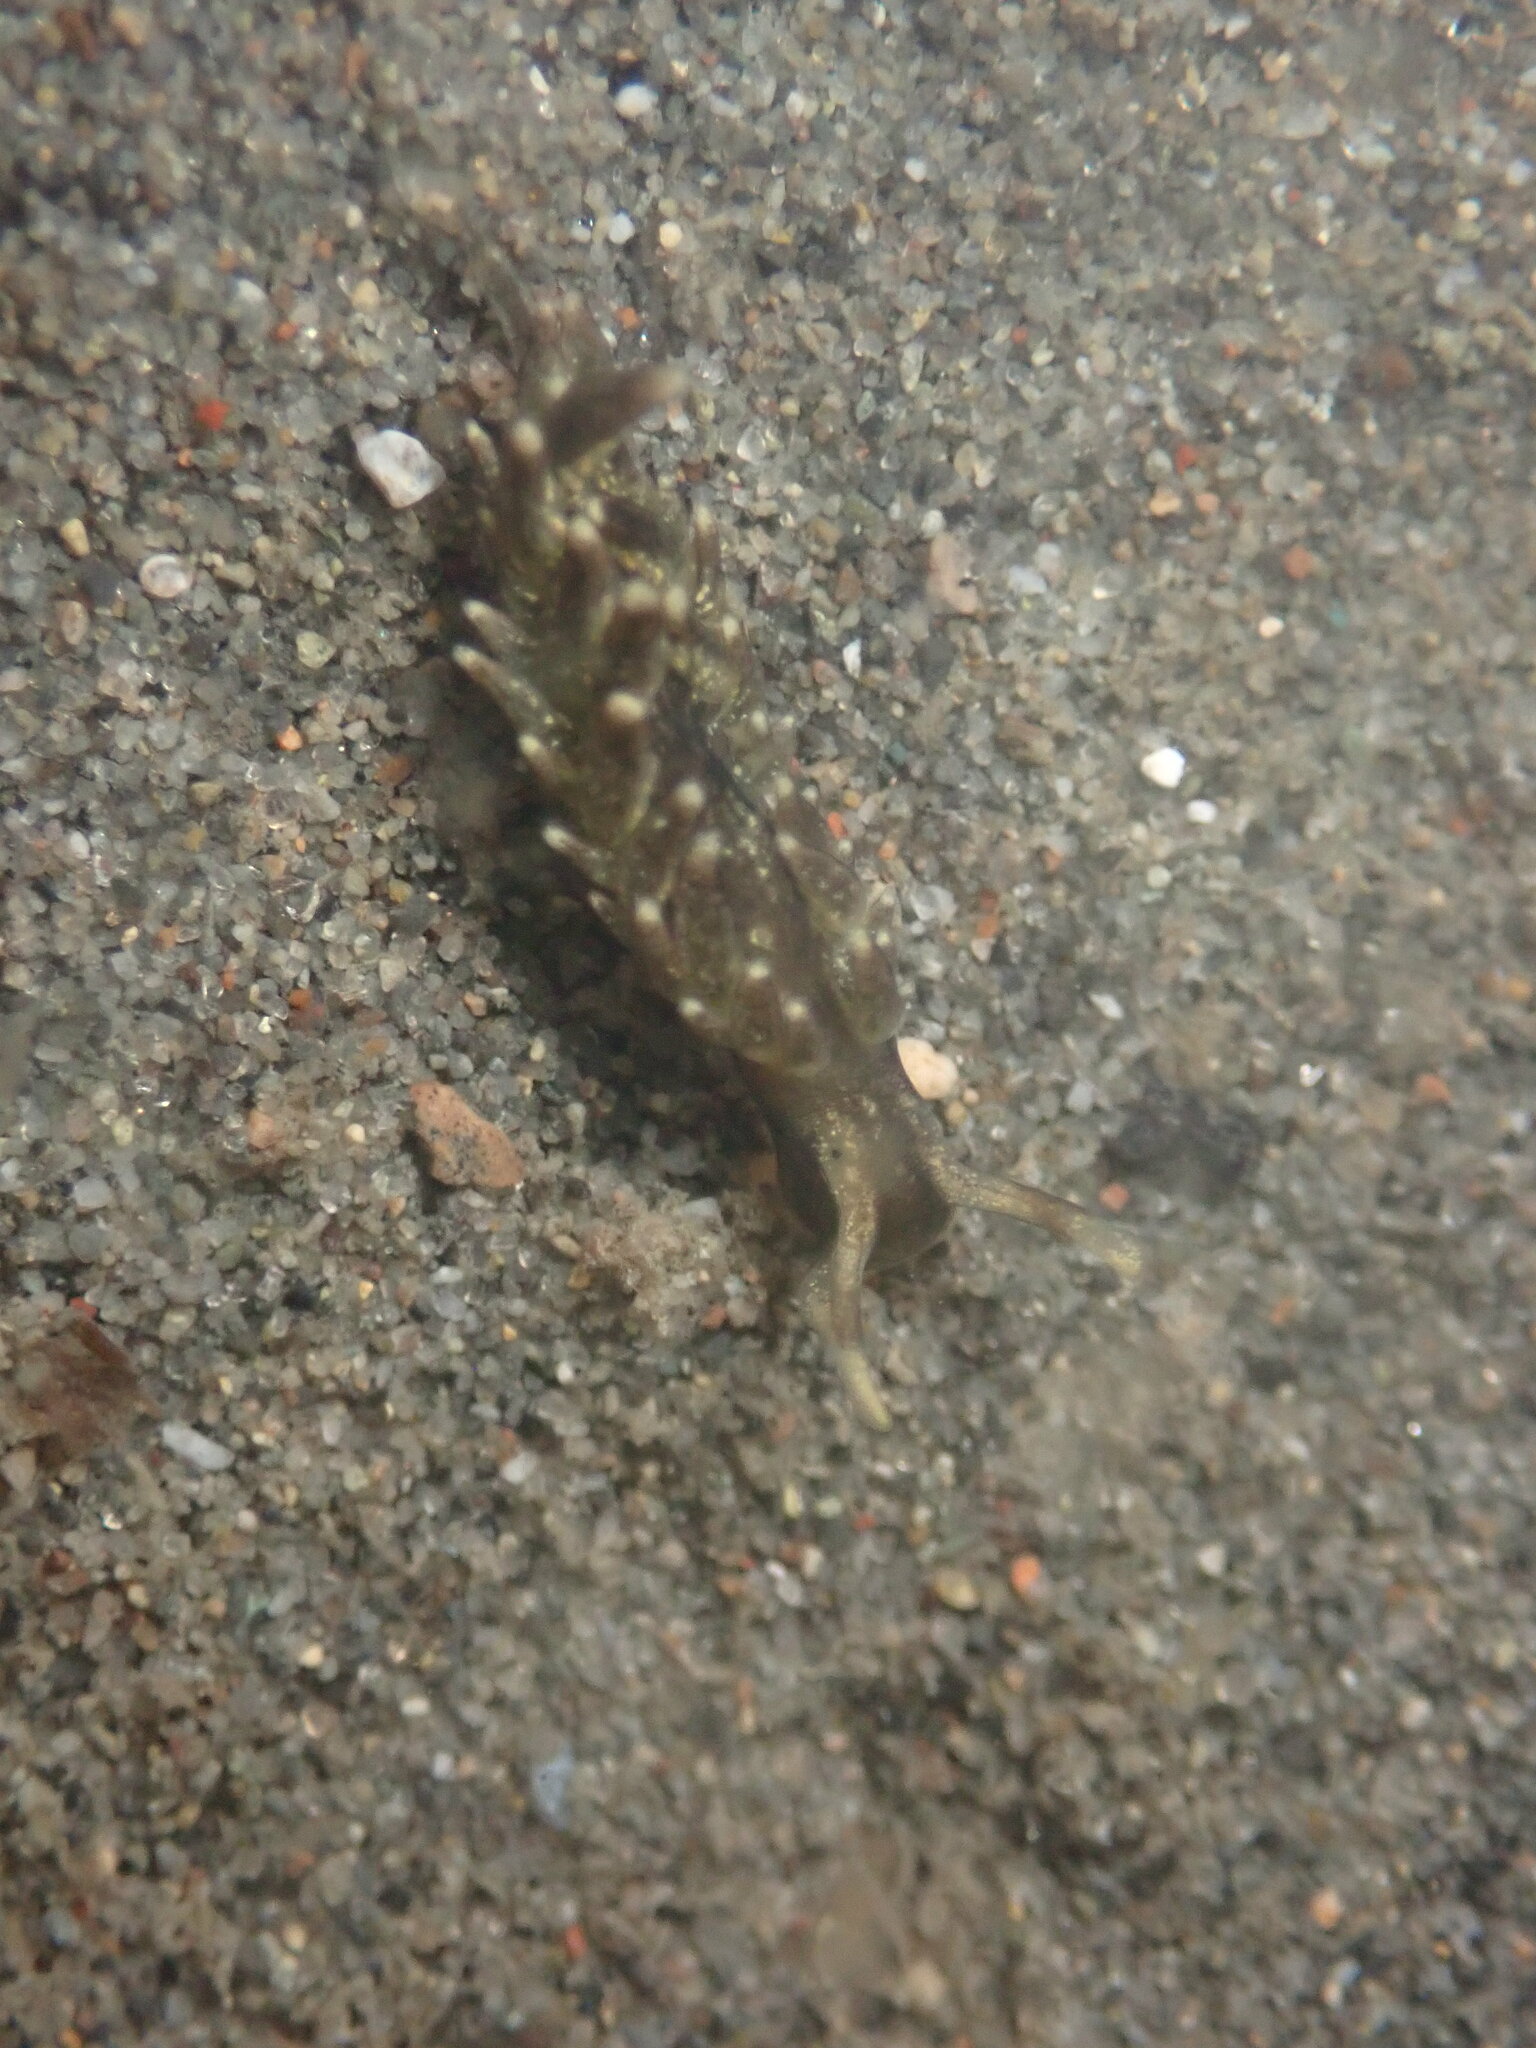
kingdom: Animalia
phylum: Mollusca
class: Gastropoda
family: Hermaeidae
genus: Aplysiopsis
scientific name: Aplysiopsis enteromorphae
